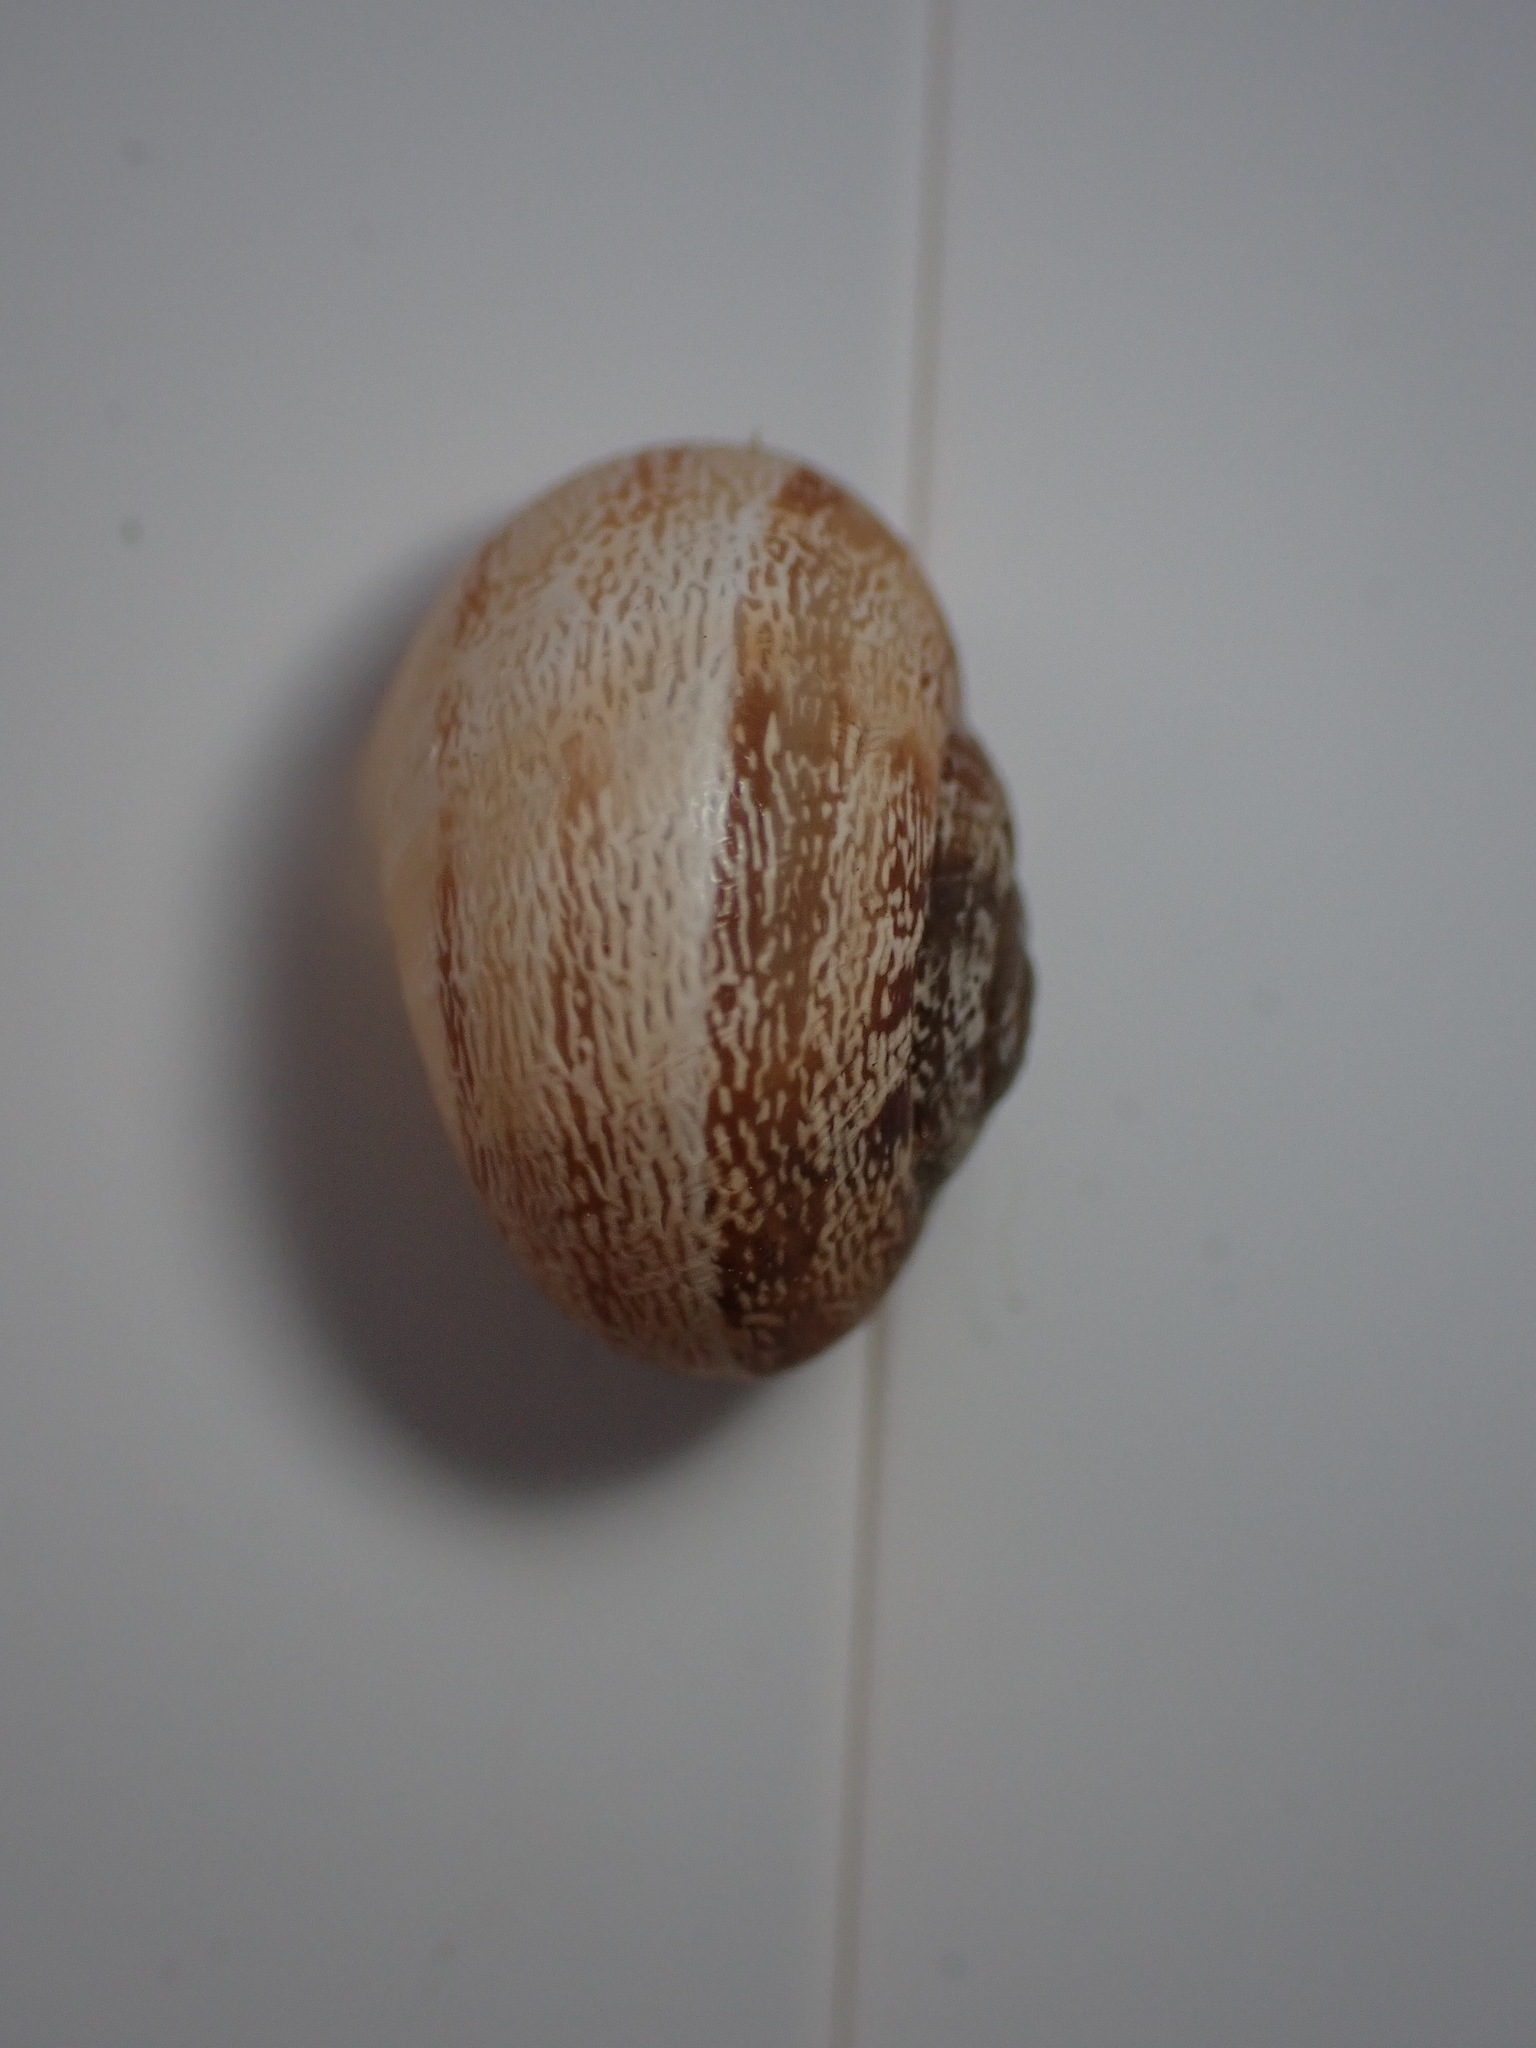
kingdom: Animalia
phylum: Mollusca
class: Gastropoda
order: Stylommatophora
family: Helicidae
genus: Eobania
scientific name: Eobania vermiculata
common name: Chocolateband snail
